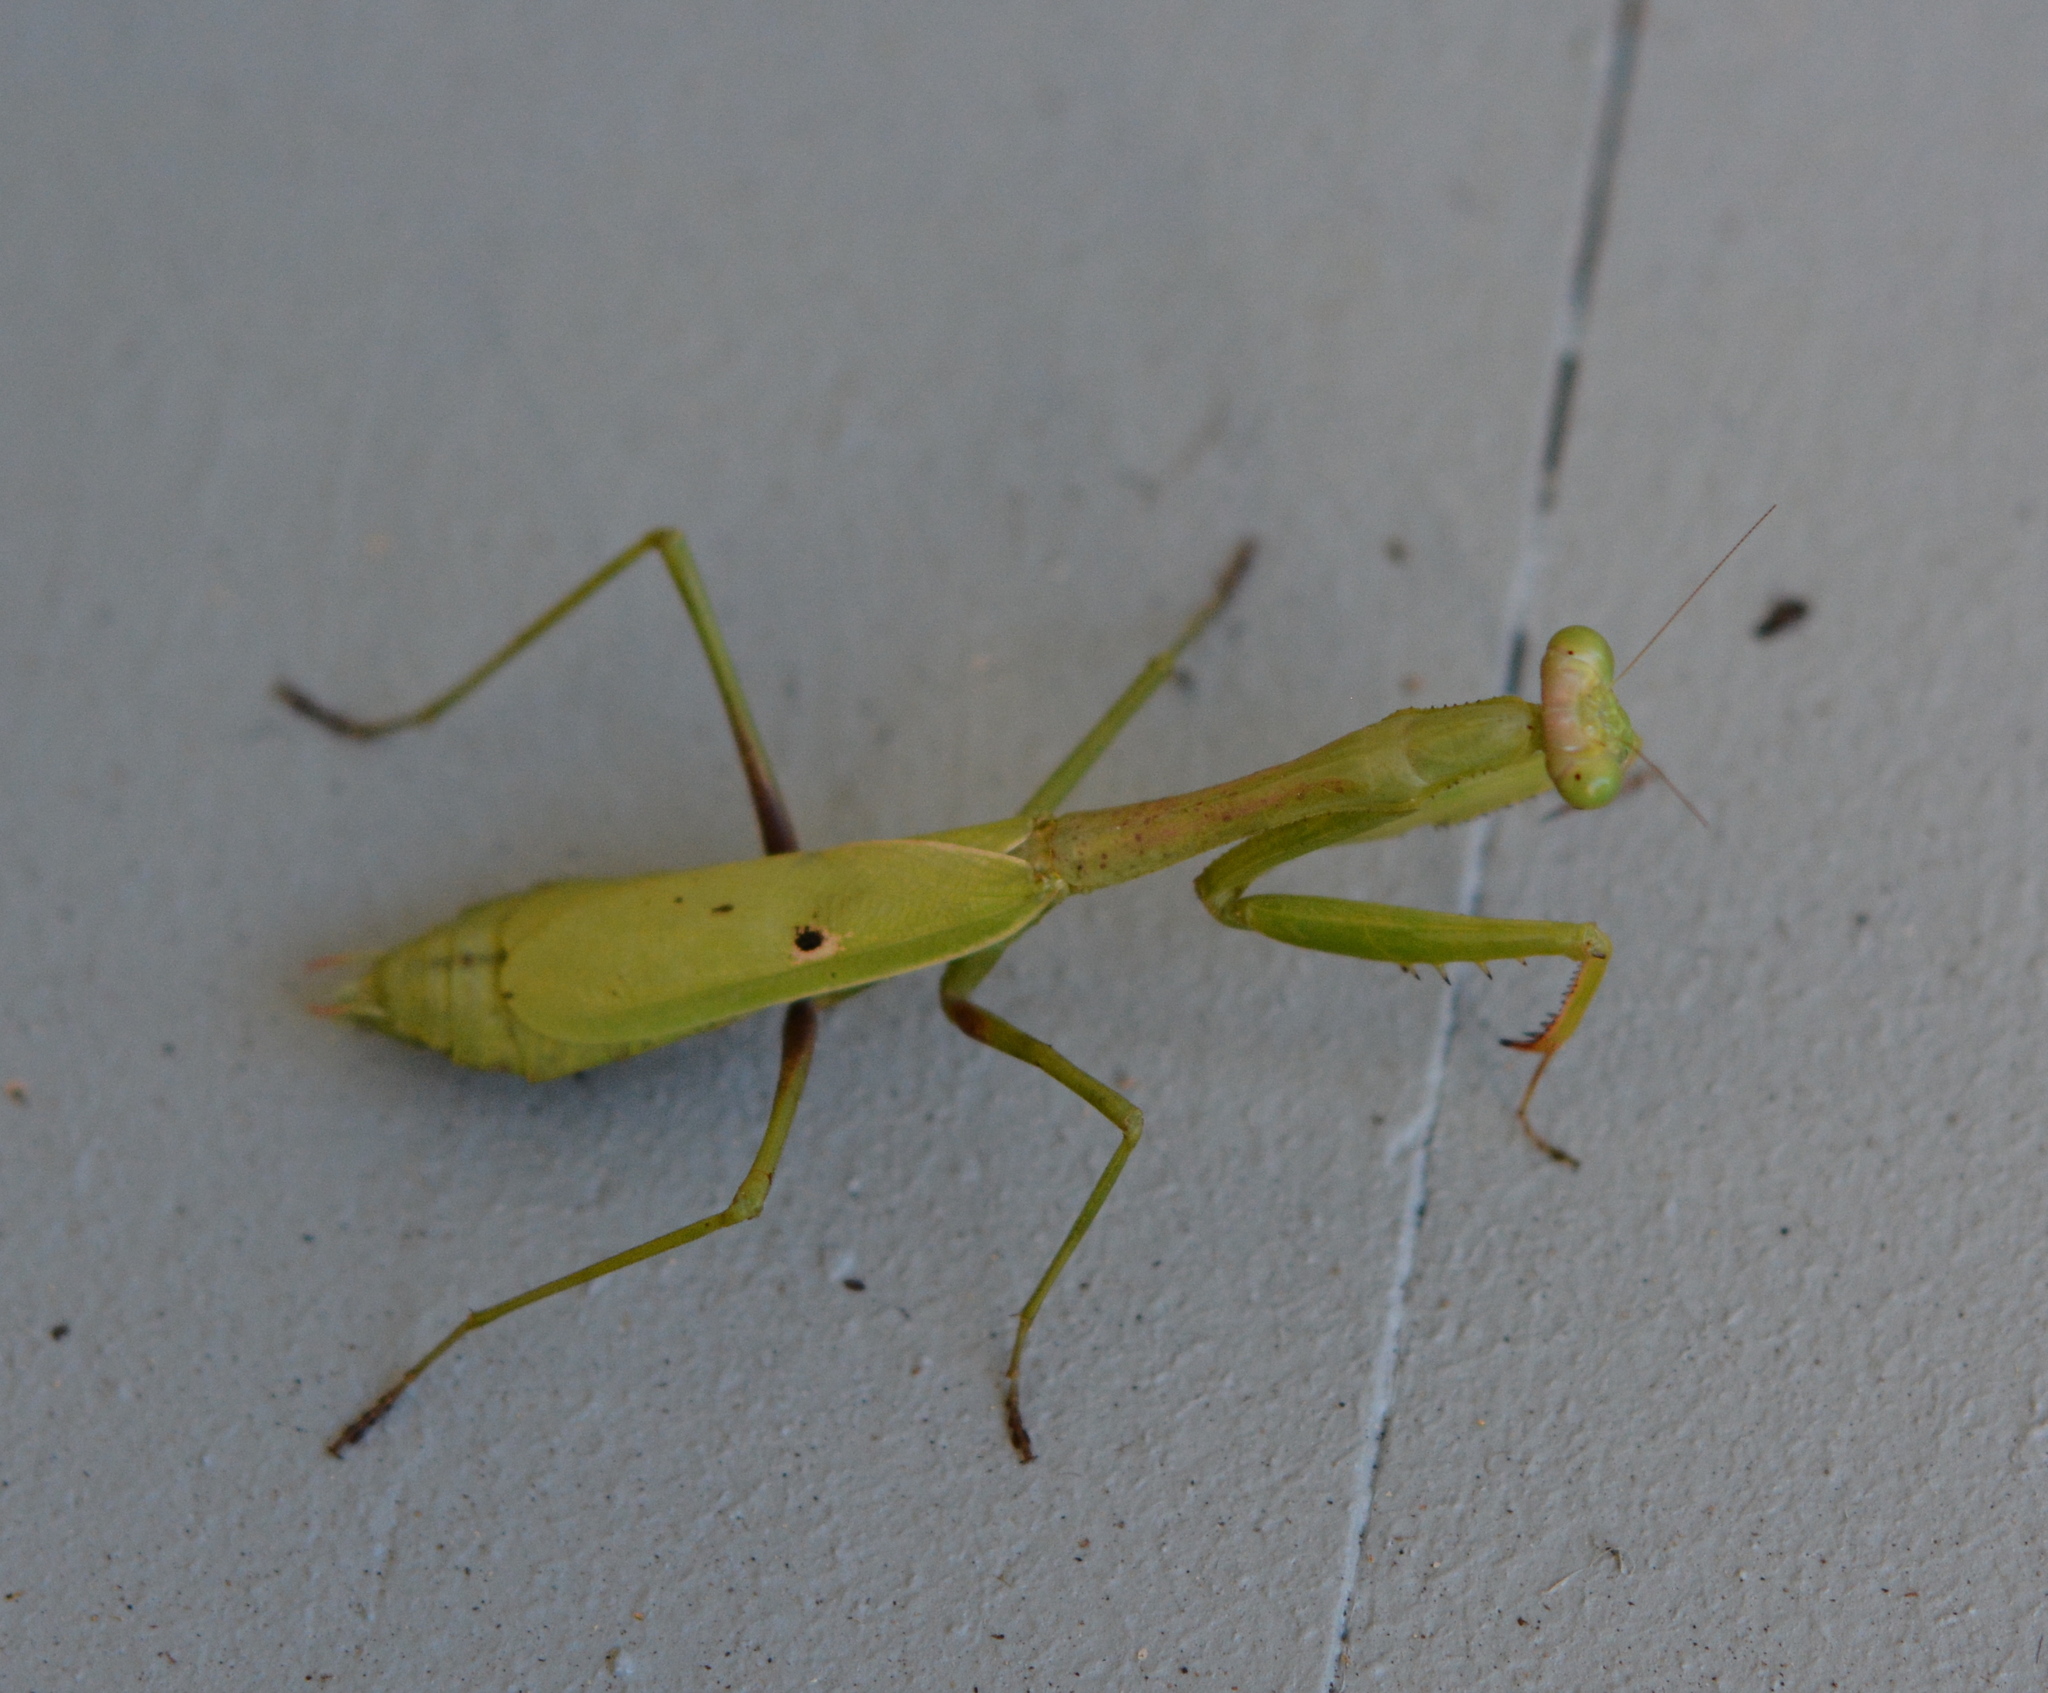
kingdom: Animalia
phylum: Arthropoda
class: Insecta
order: Mantodea
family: Mantidae
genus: Stagmomantis
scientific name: Stagmomantis carolina
